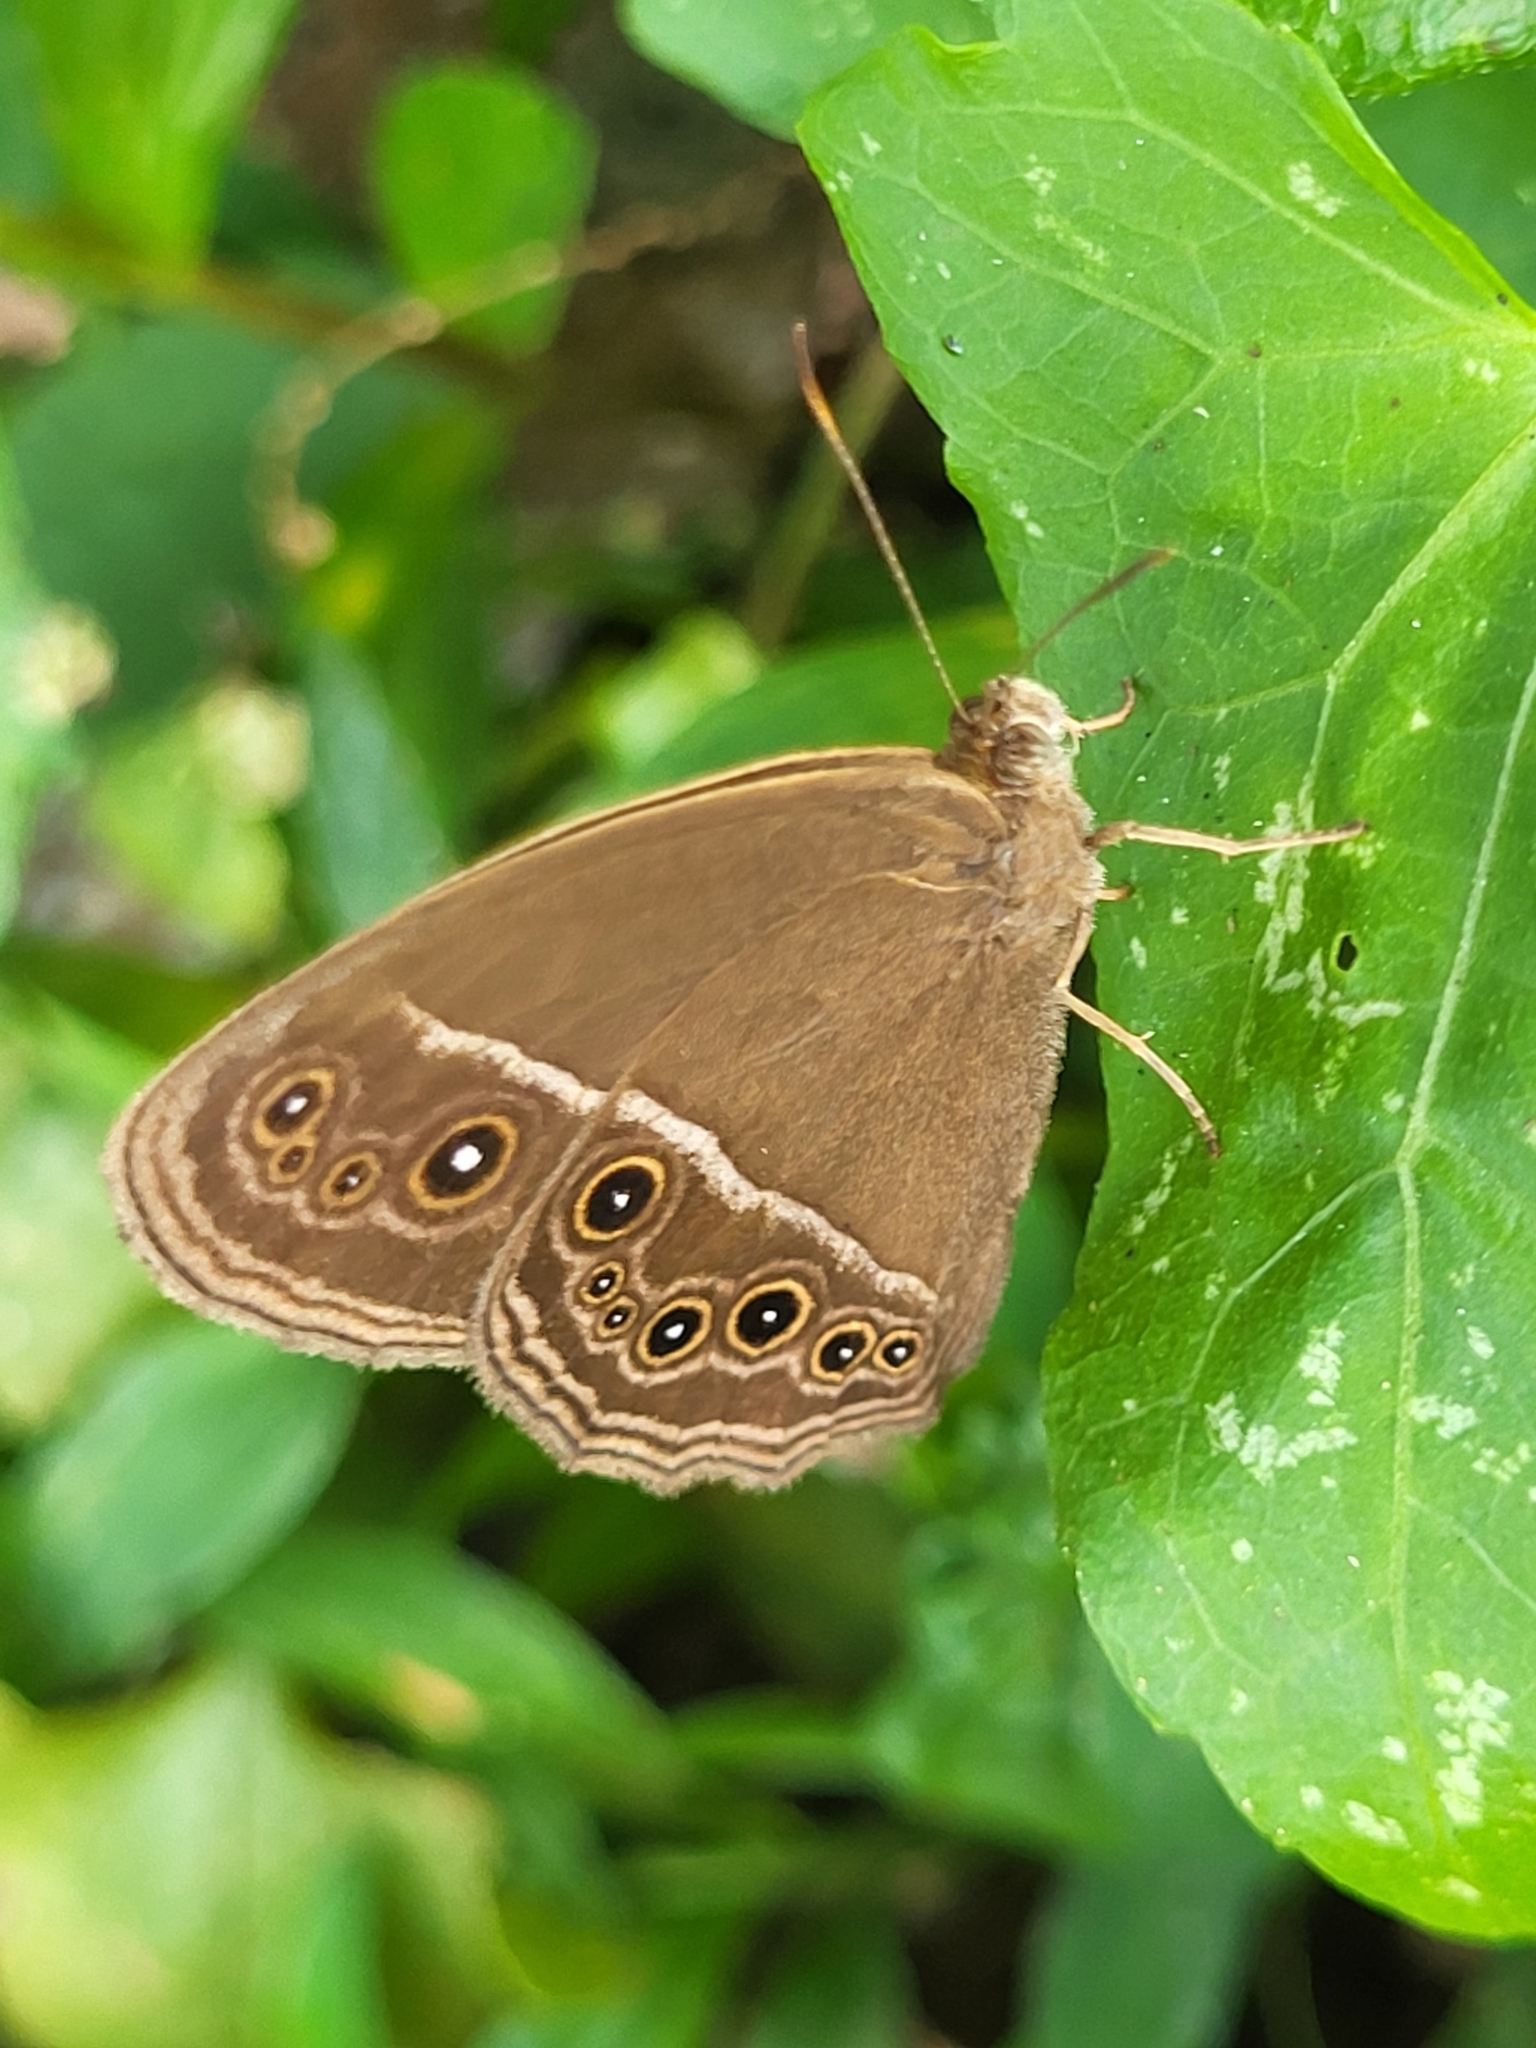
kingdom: Animalia
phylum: Arthropoda
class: Insecta
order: Lepidoptera
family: Nymphalidae
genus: Mycalesis
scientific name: Mycalesis perseus
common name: Dingy bushbrown
